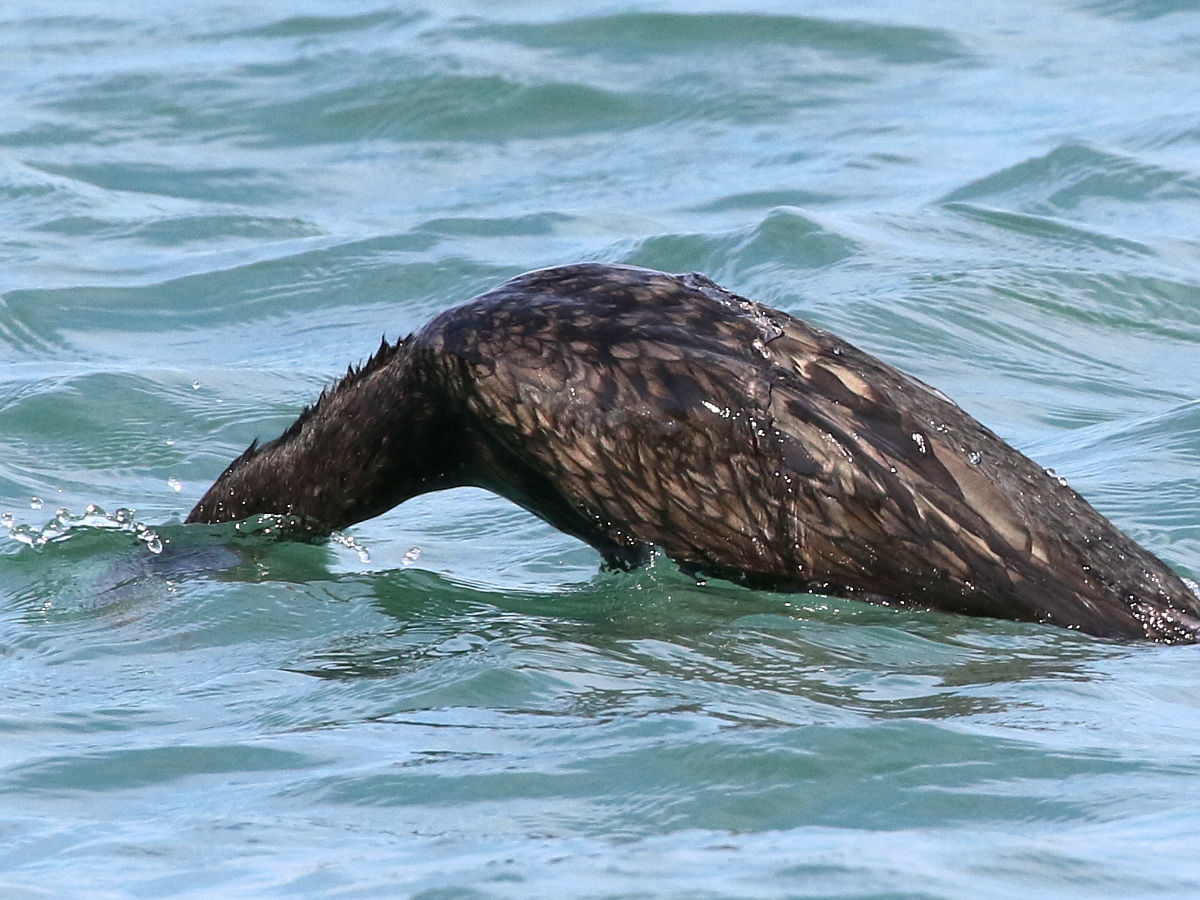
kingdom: Animalia
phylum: Chordata
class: Aves
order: Suliformes
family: Phalacrocoracidae
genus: Phalacrocorax
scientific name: Phalacrocorax auritus
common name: Double-crested cormorant
